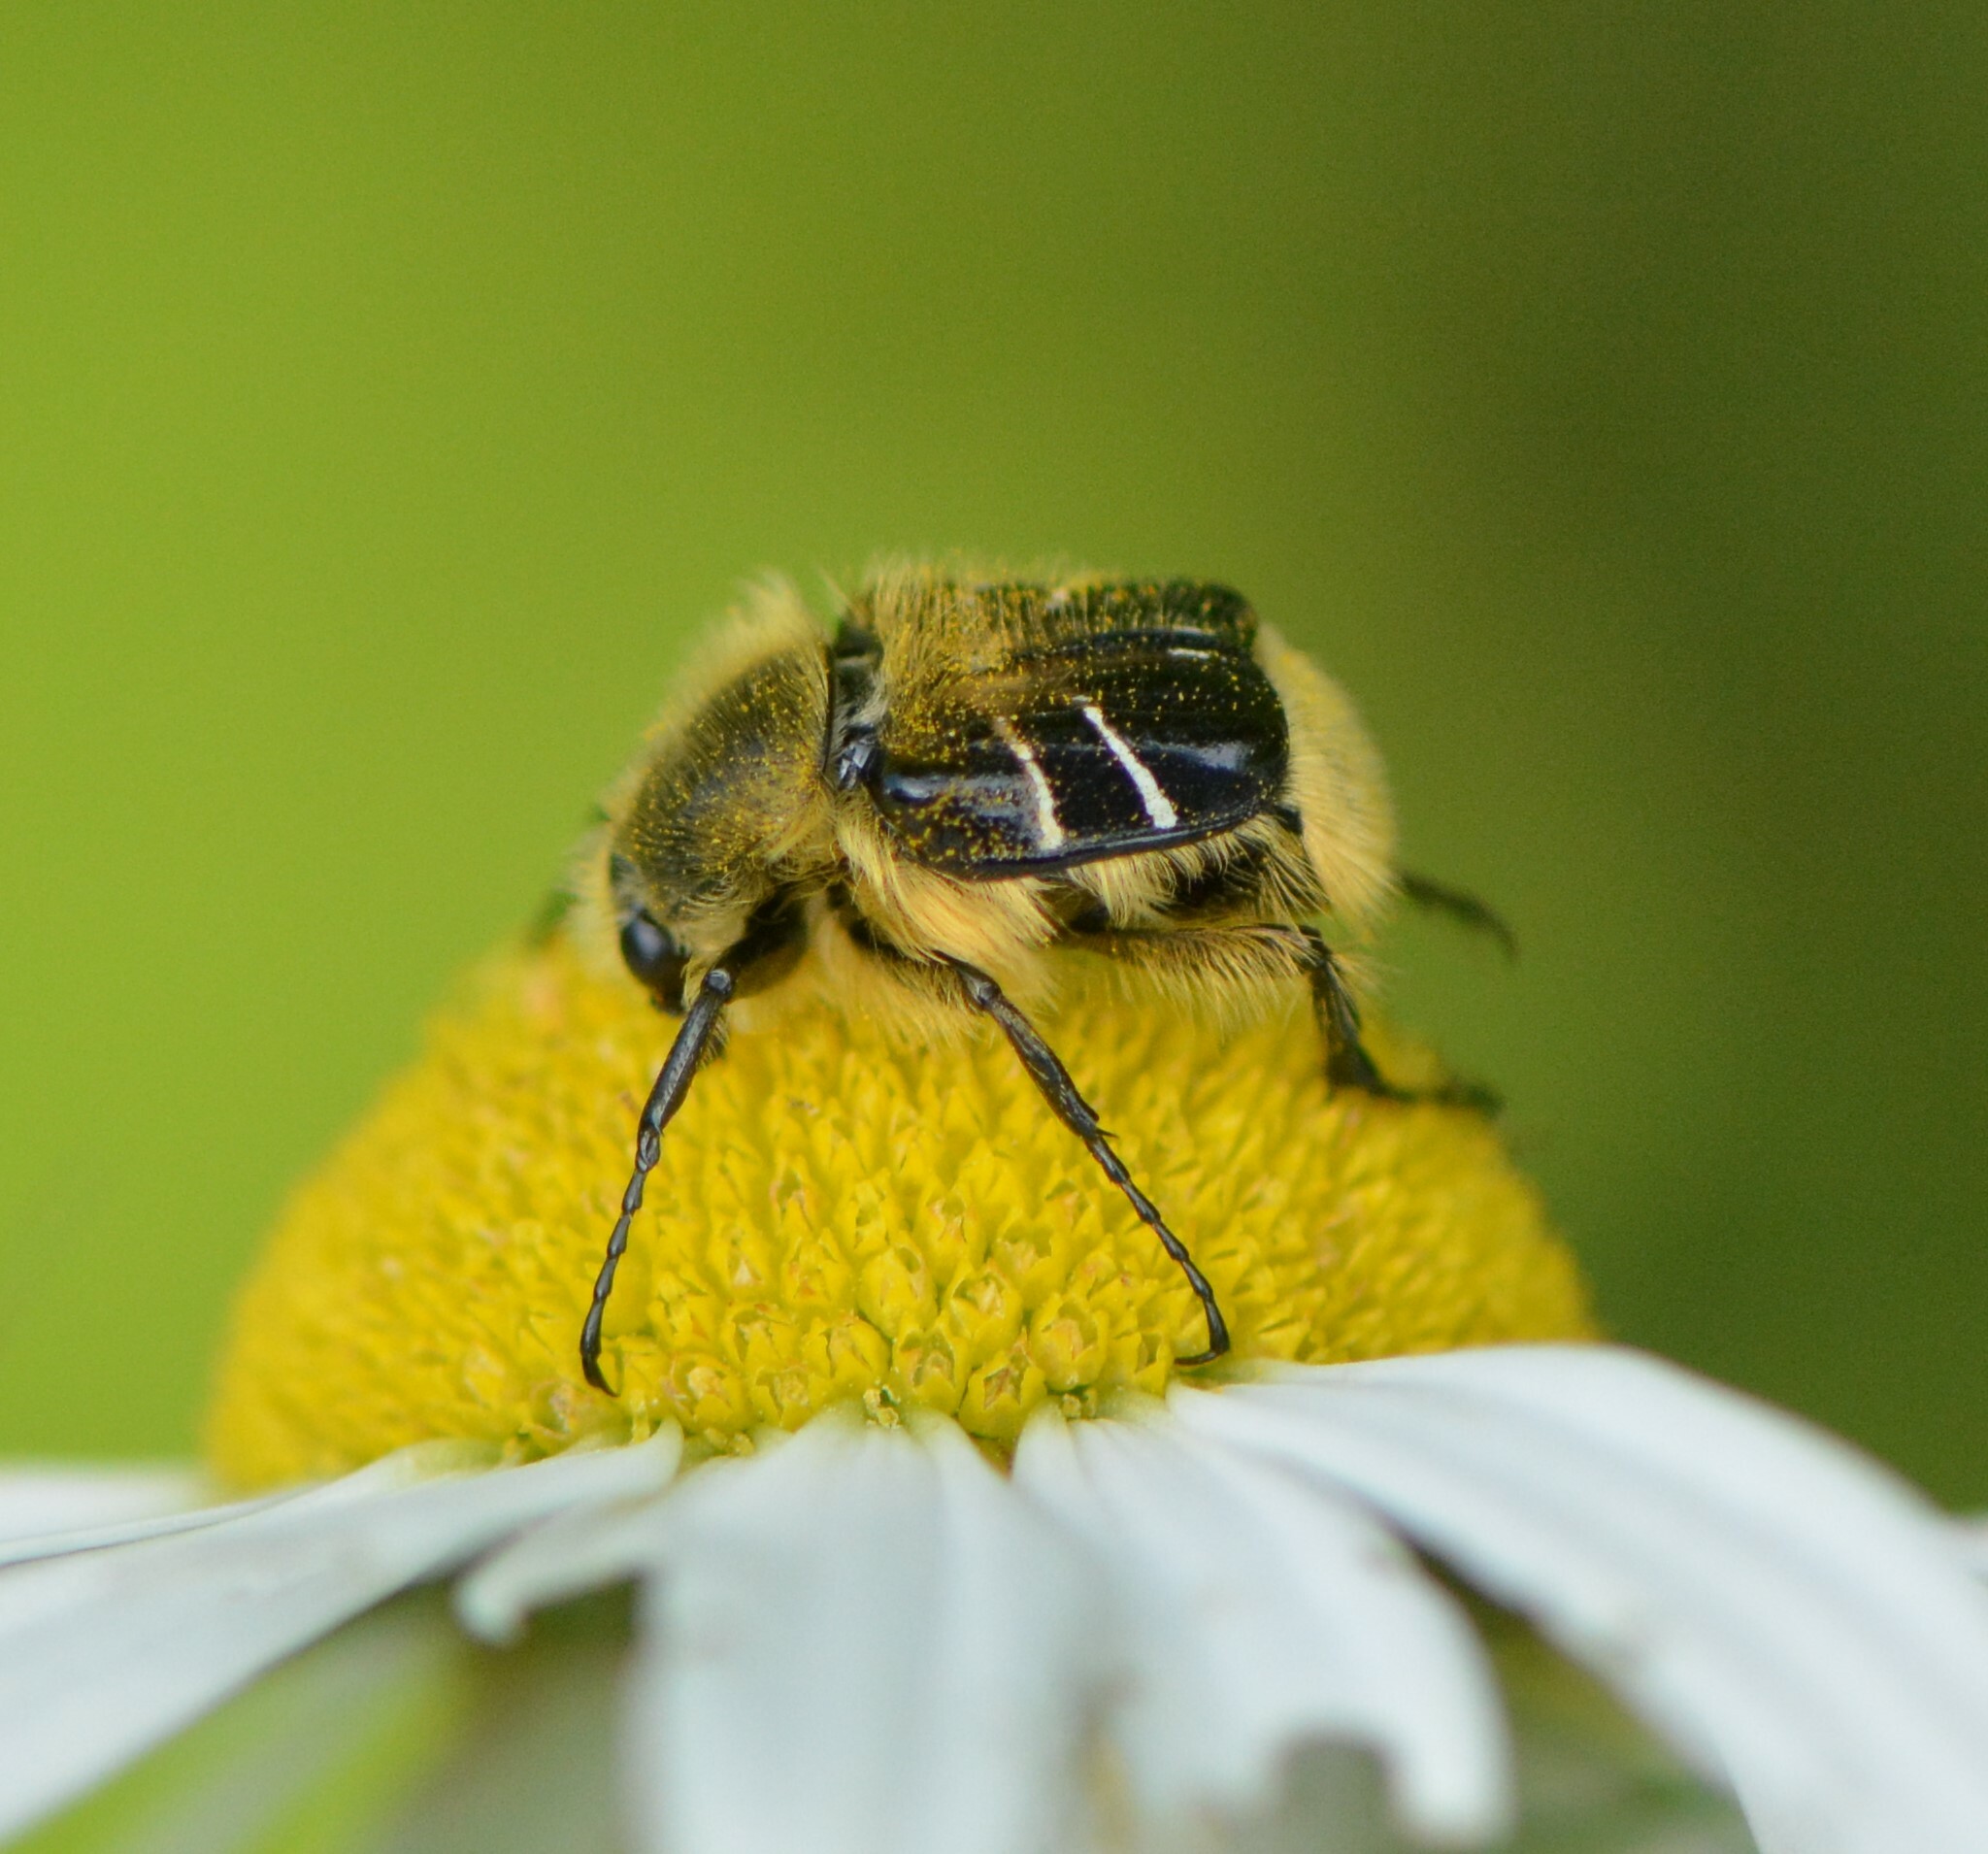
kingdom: Animalia
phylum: Arthropoda
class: Insecta
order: Coleoptera
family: Scarabaeidae
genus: Trichiotinus
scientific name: Trichiotinus assimilis
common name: Bee-mimic beetle
